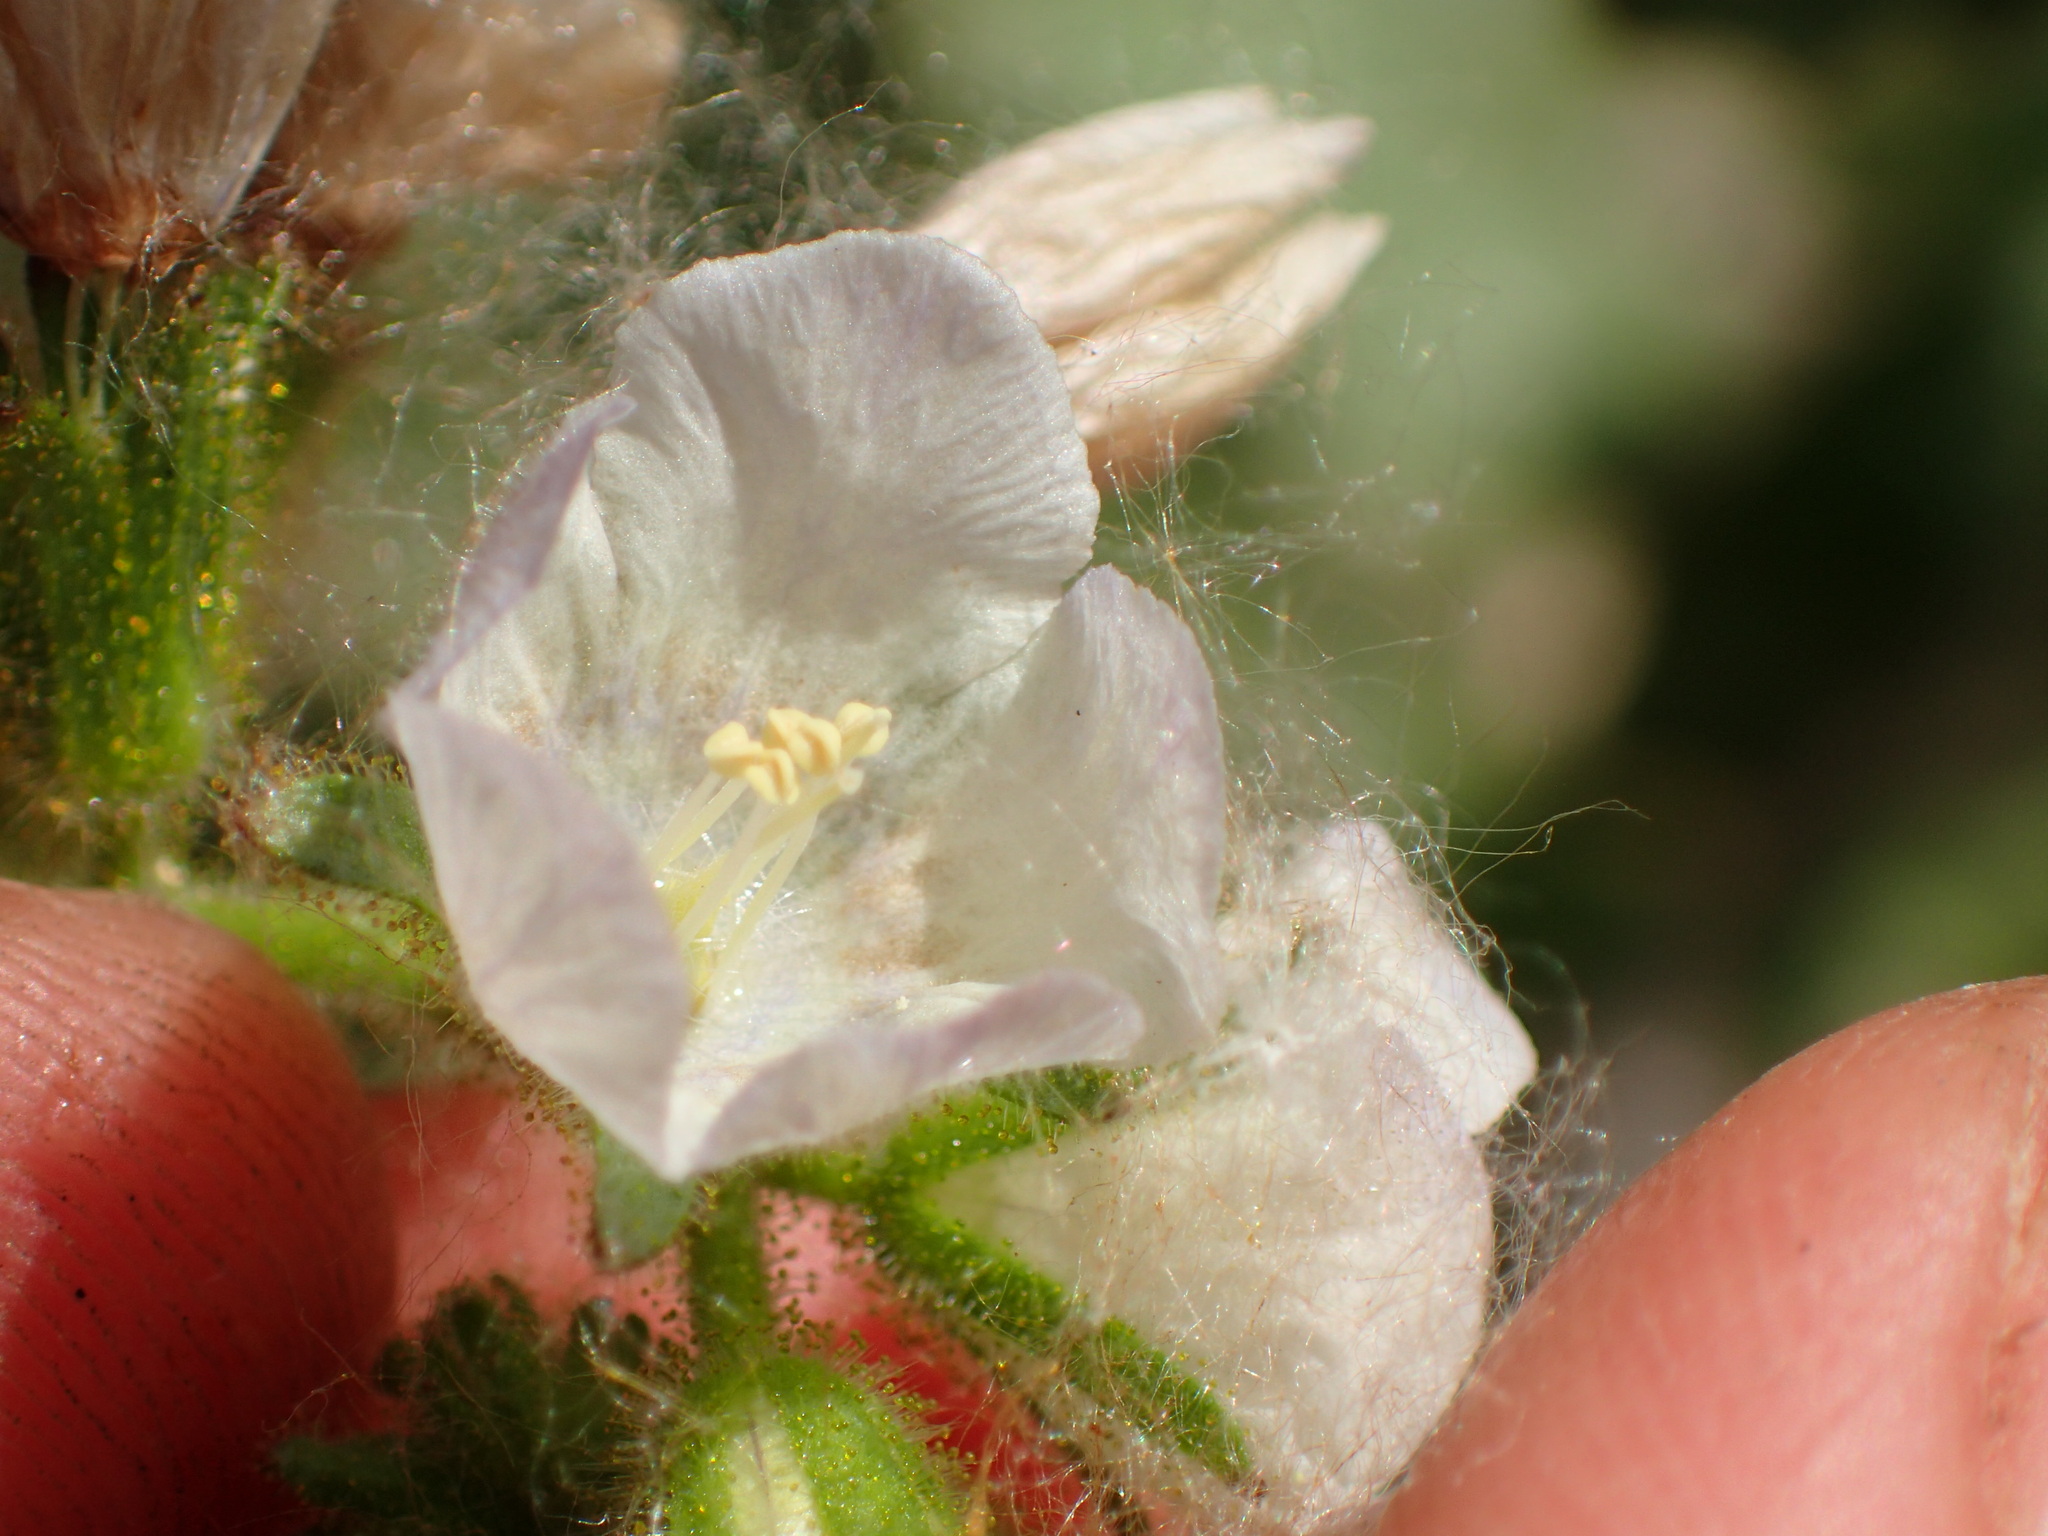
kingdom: Plantae
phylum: Tracheophyta
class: Magnoliopsida
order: Boraginales
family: Hydrophyllaceae
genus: Phacelia
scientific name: Phacelia viscida
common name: Sticky phacelia
